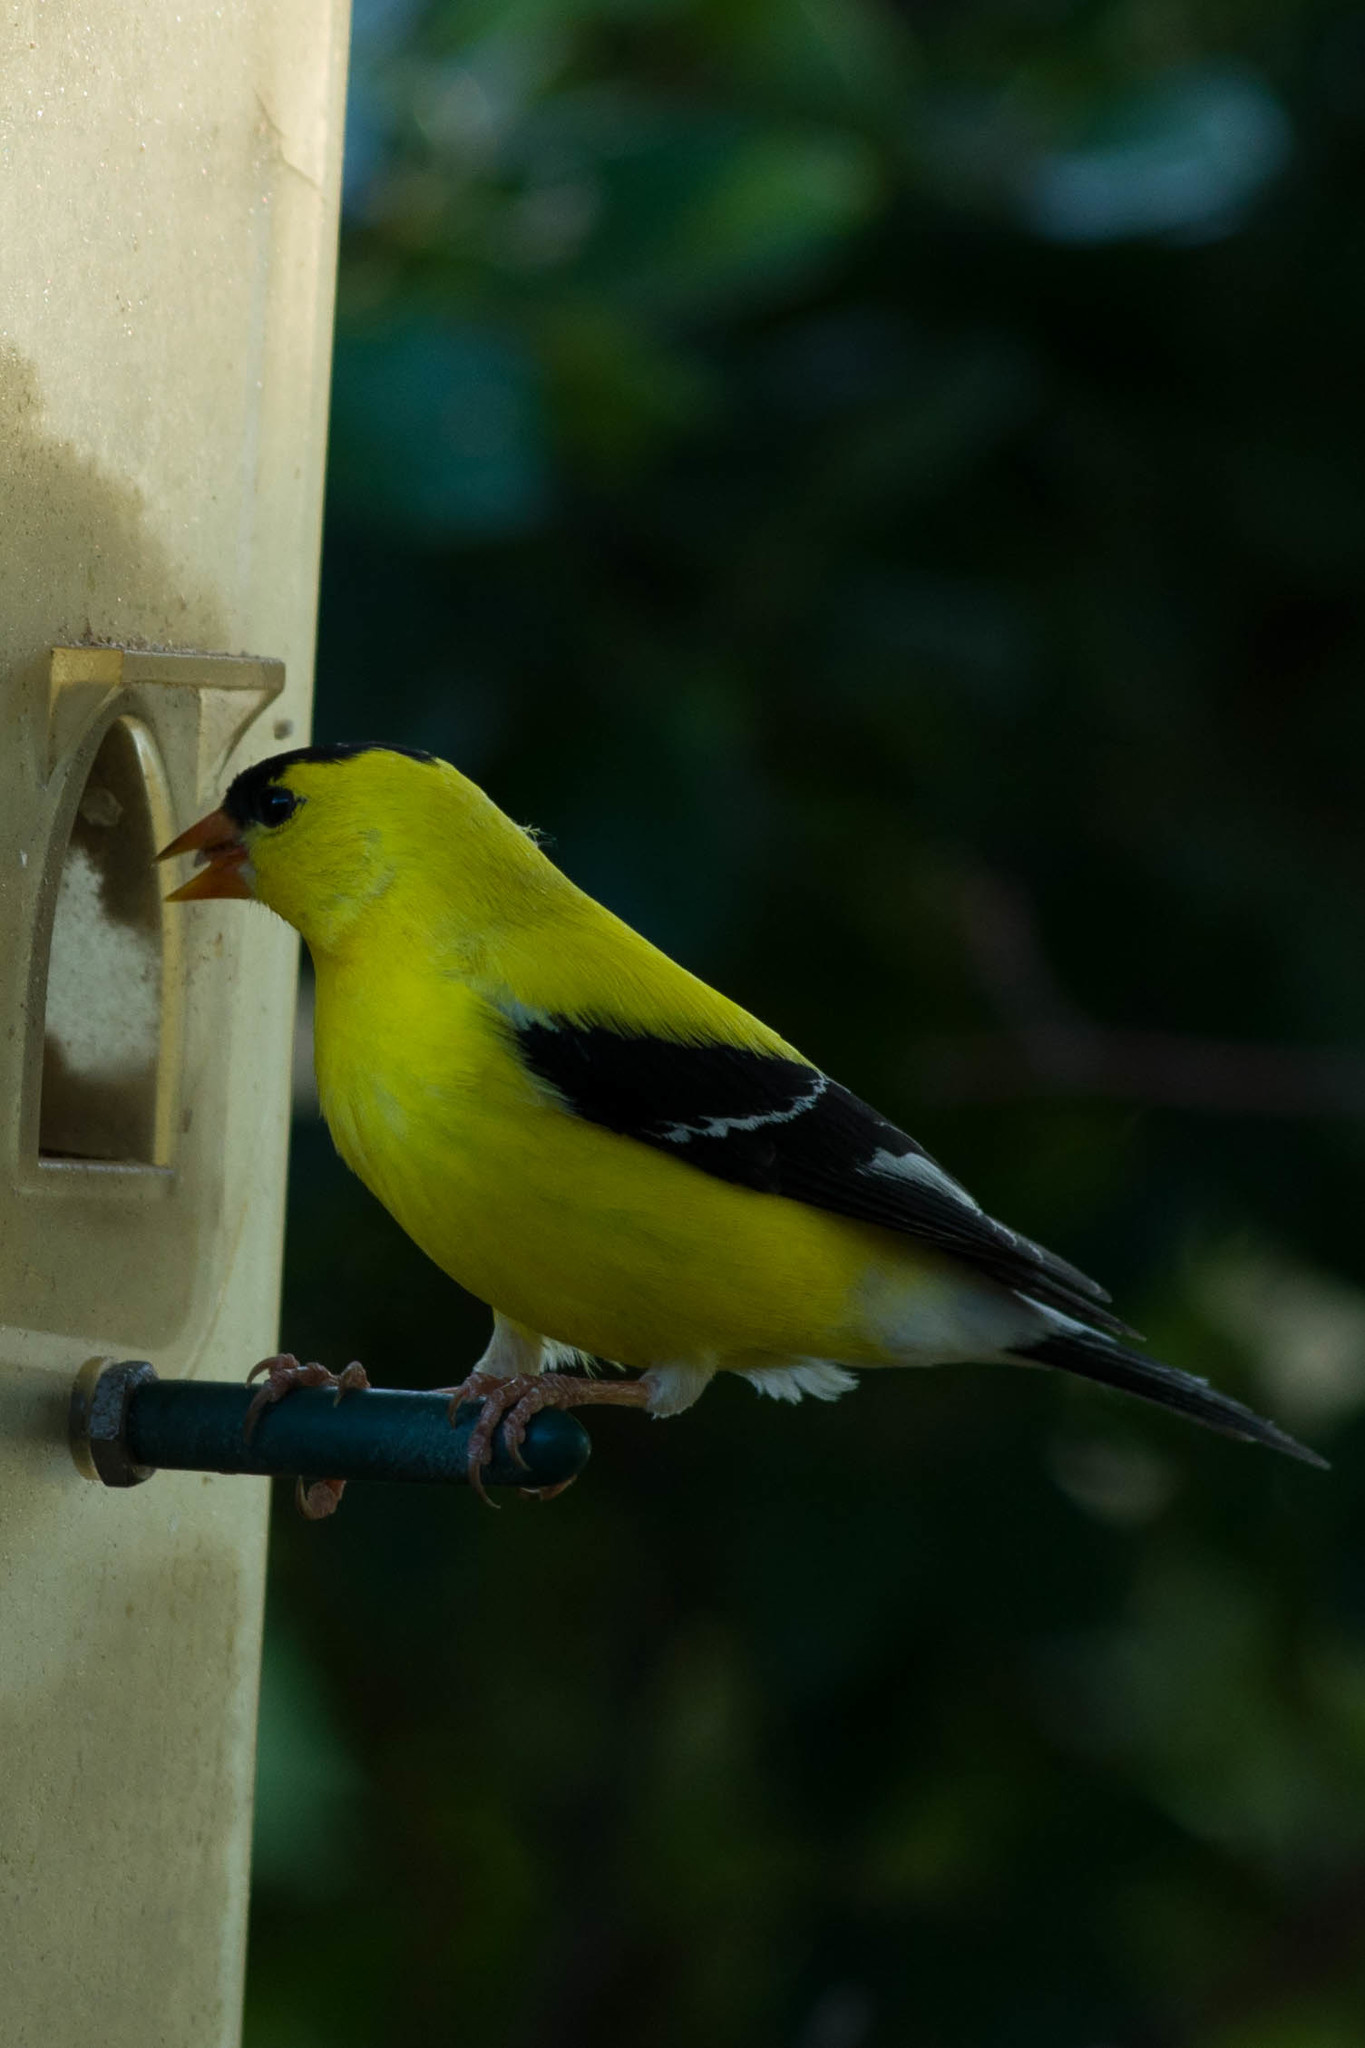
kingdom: Animalia
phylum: Chordata
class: Aves
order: Passeriformes
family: Fringillidae
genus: Spinus
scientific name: Spinus tristis
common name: American goldfinch
